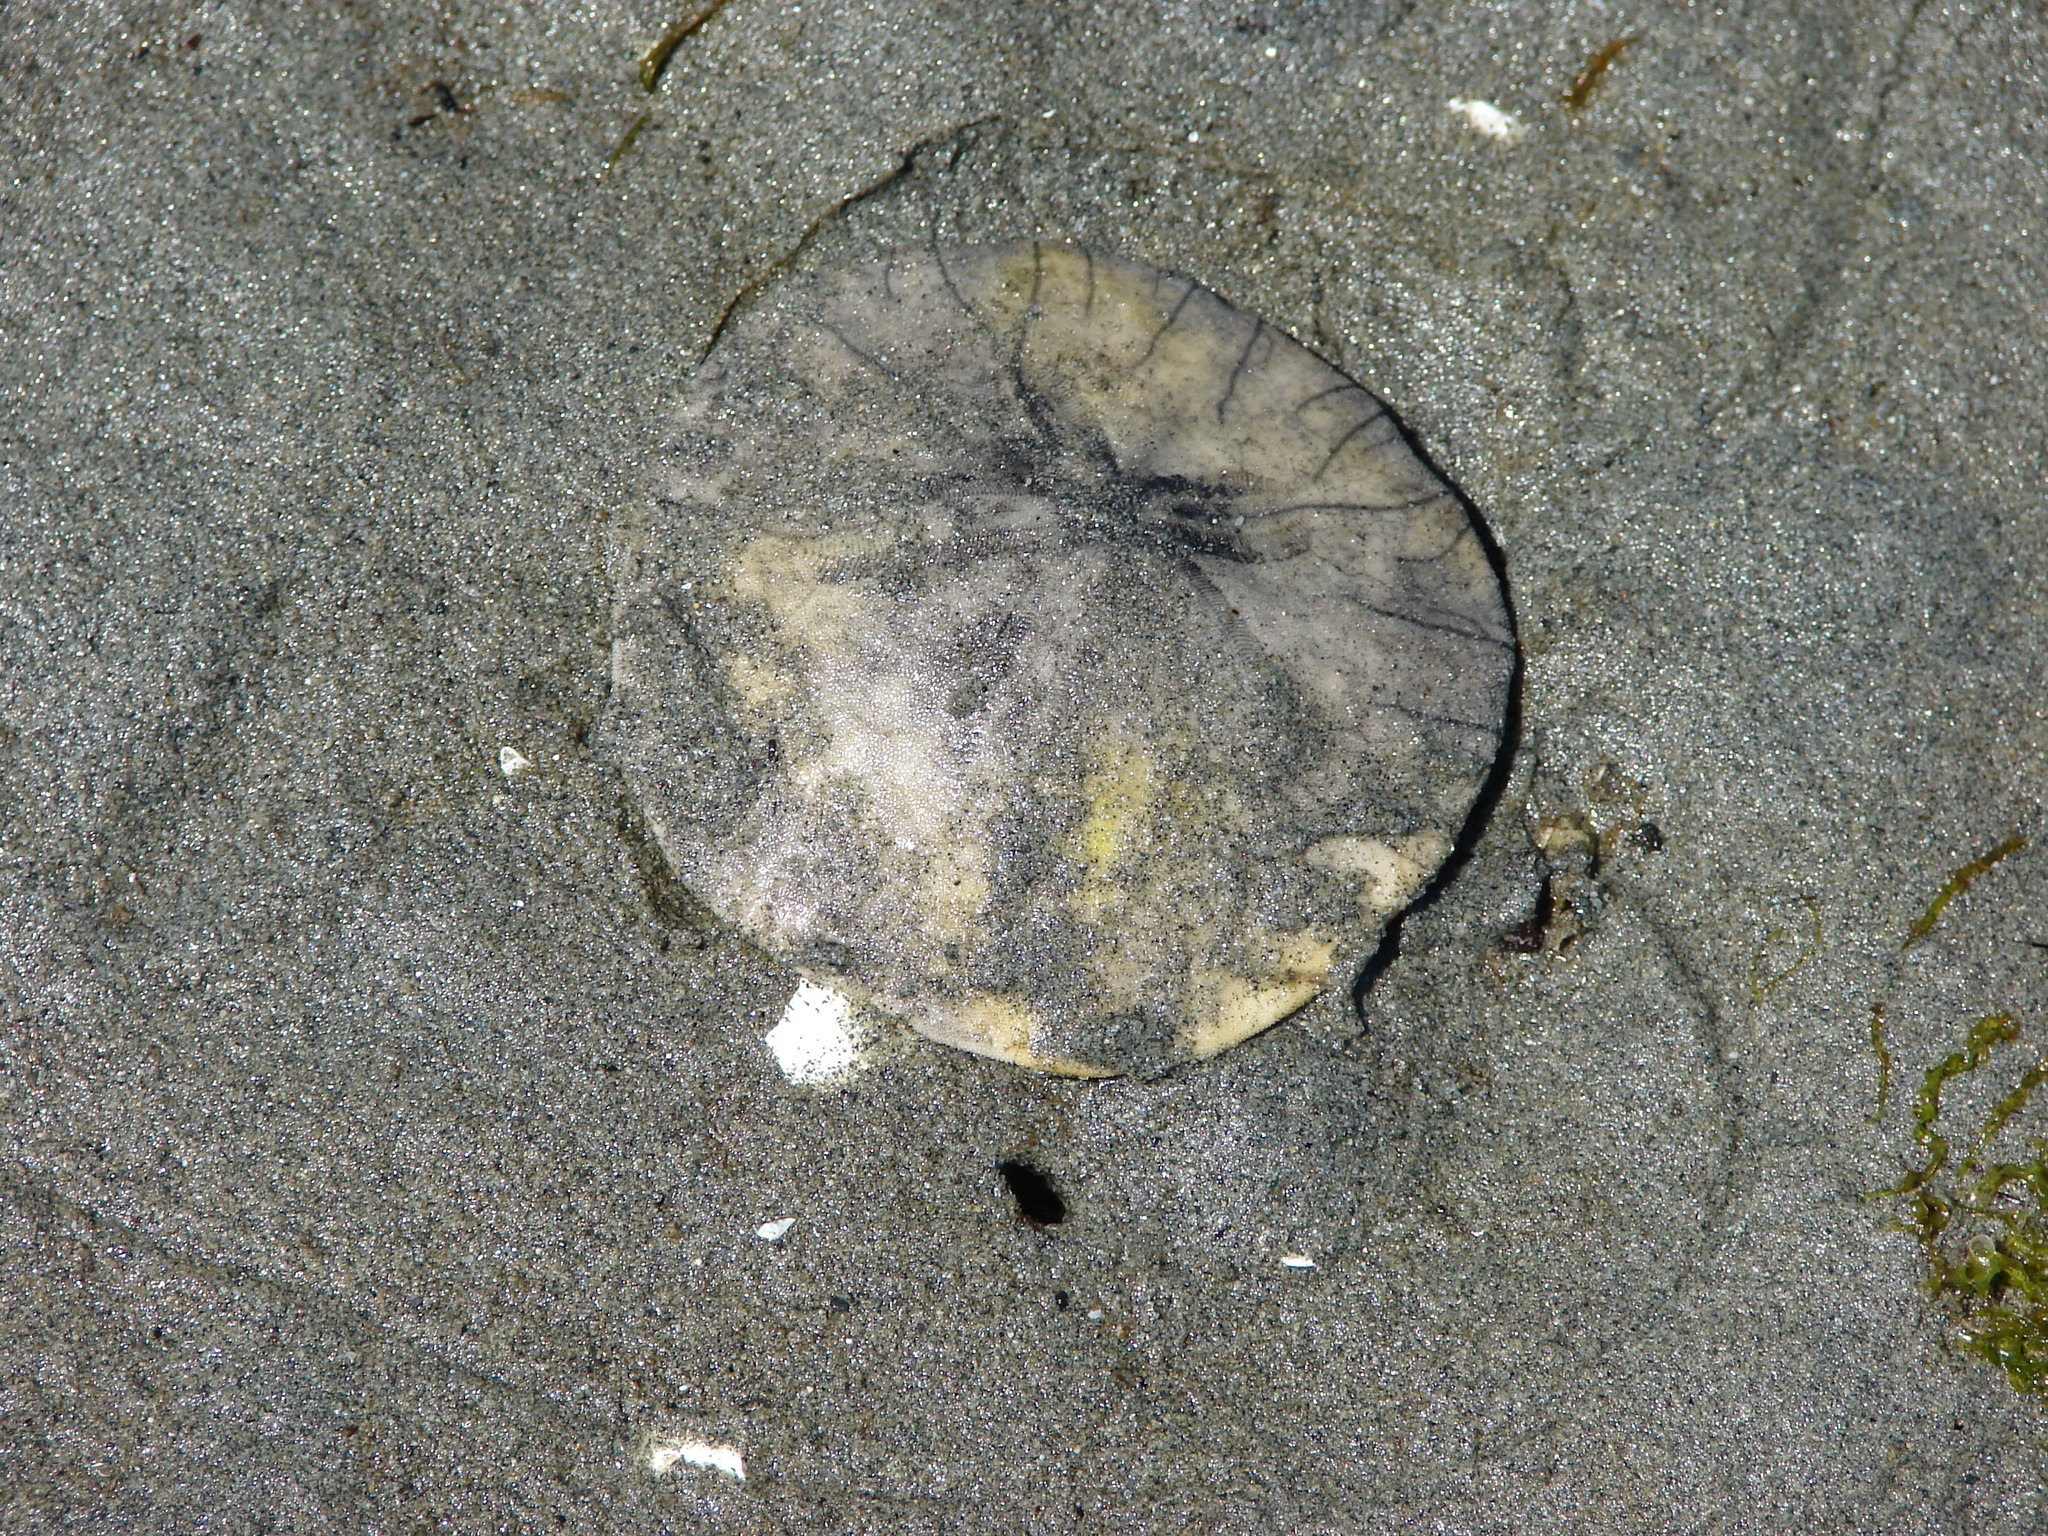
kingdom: Animalia
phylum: Echinodermata
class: Echinoidea
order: Echinolampadacea
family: Dendrasteridae
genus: Dendraster
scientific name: Dendraster excentricus
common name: Eccentric sand dollar sea urchin
